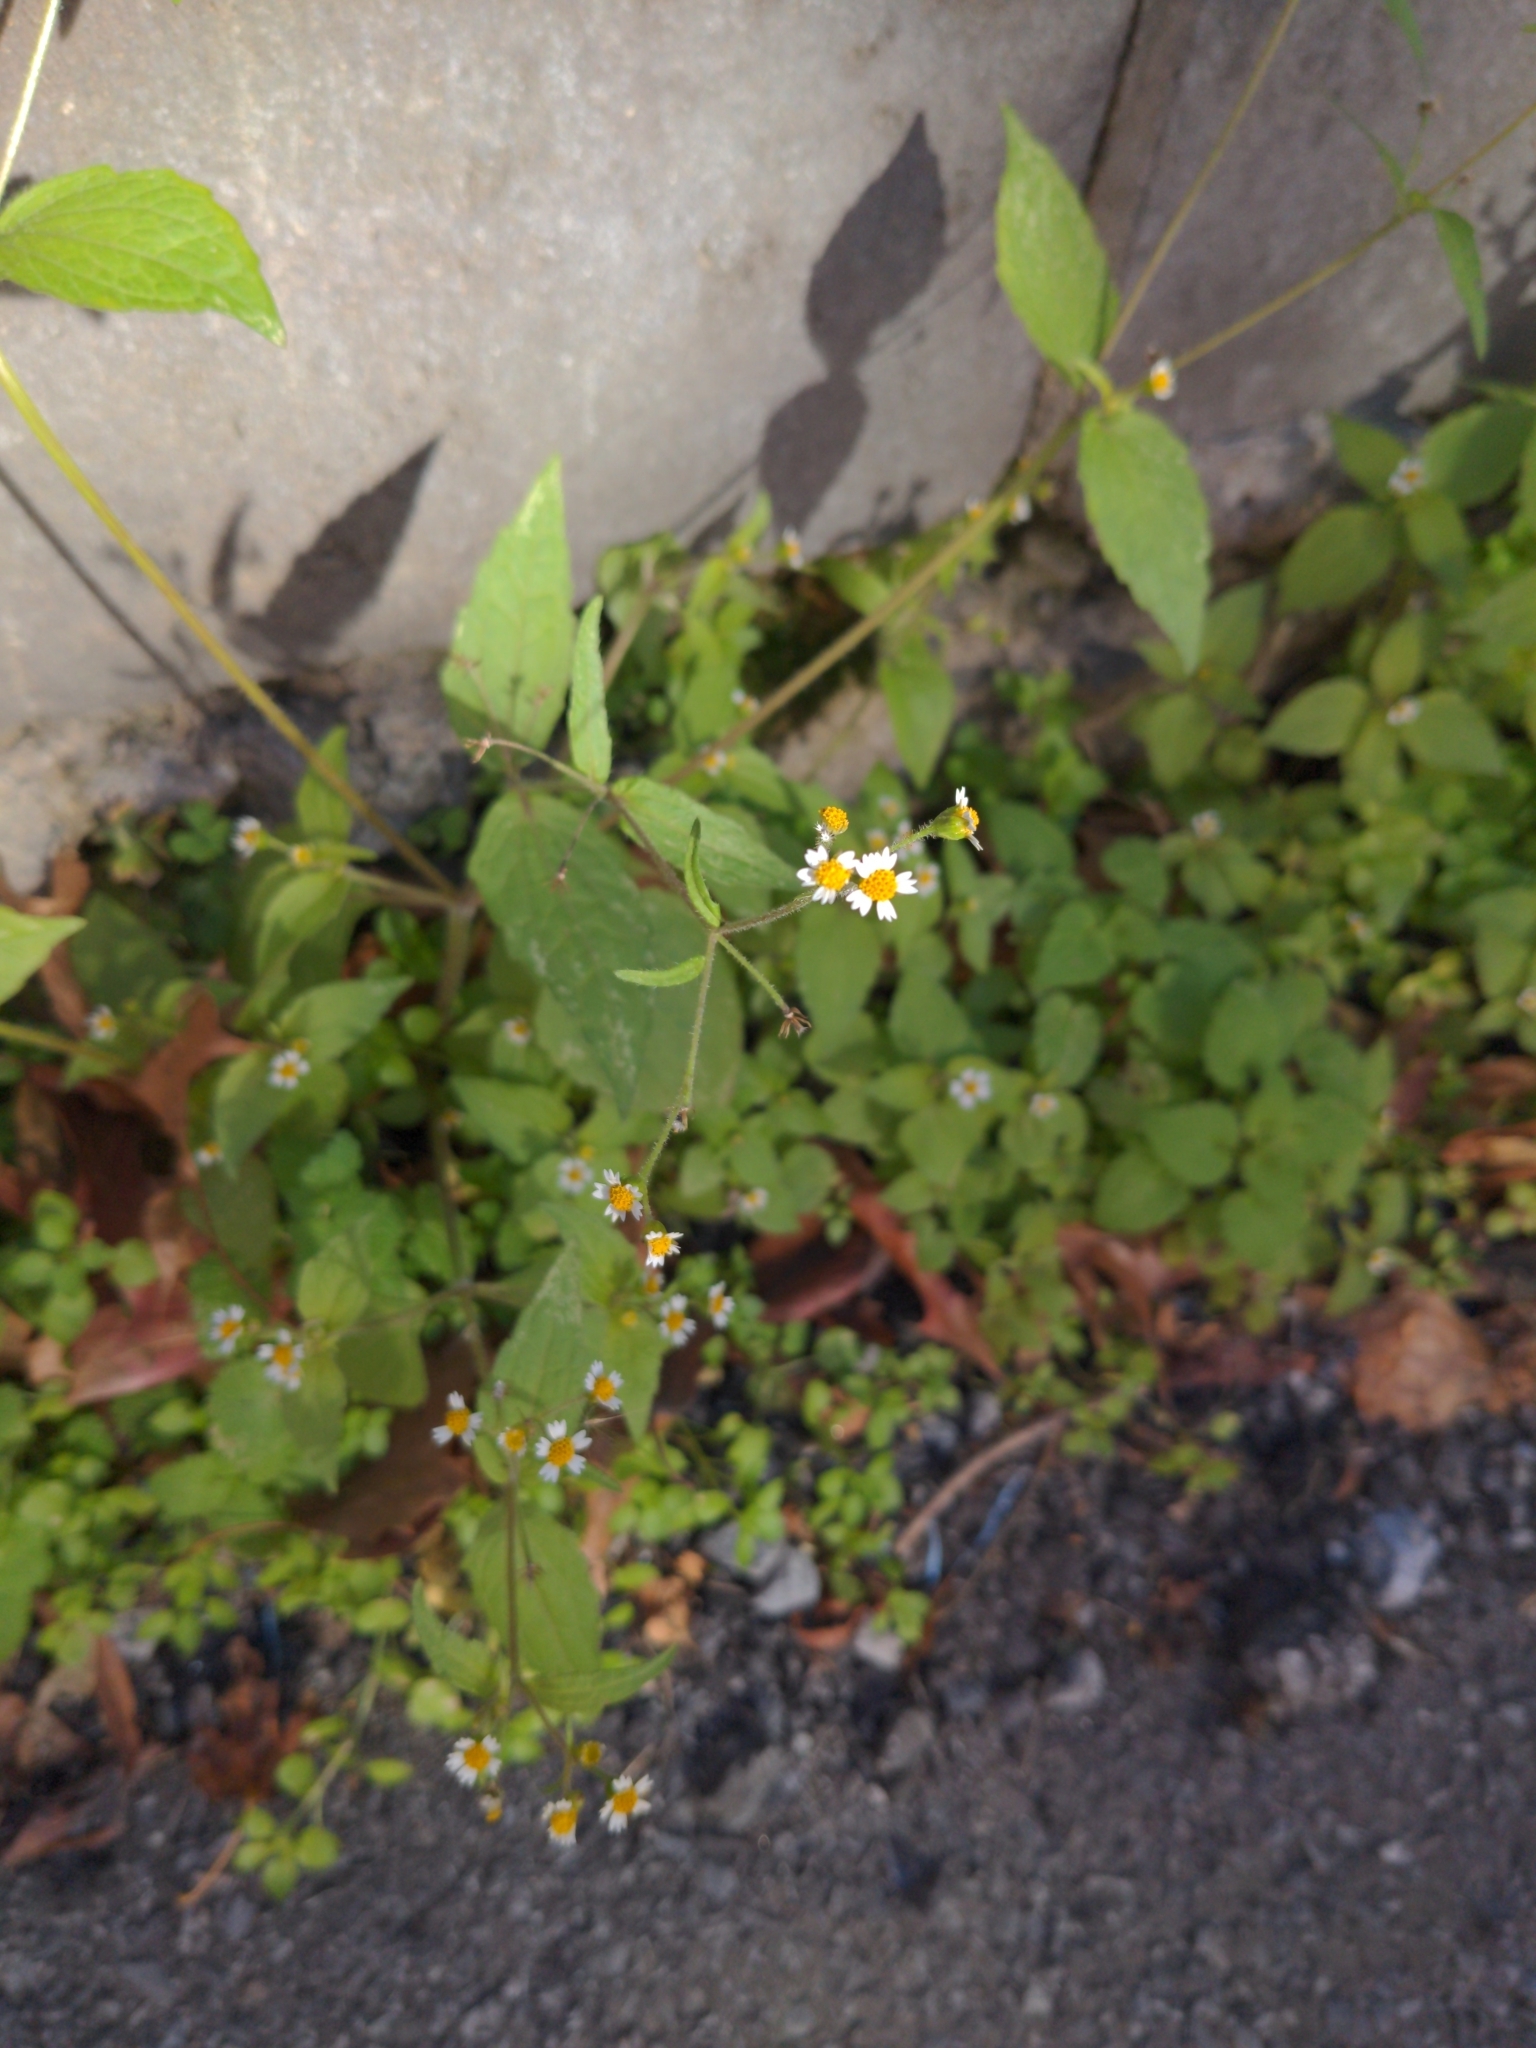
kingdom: Plantae
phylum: Tracheophyta
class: Magnoliopsida
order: Asterales
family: Asteraceae
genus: Galinsoga
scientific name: Galinsoga quadriradiata
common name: Shaggy soldier
